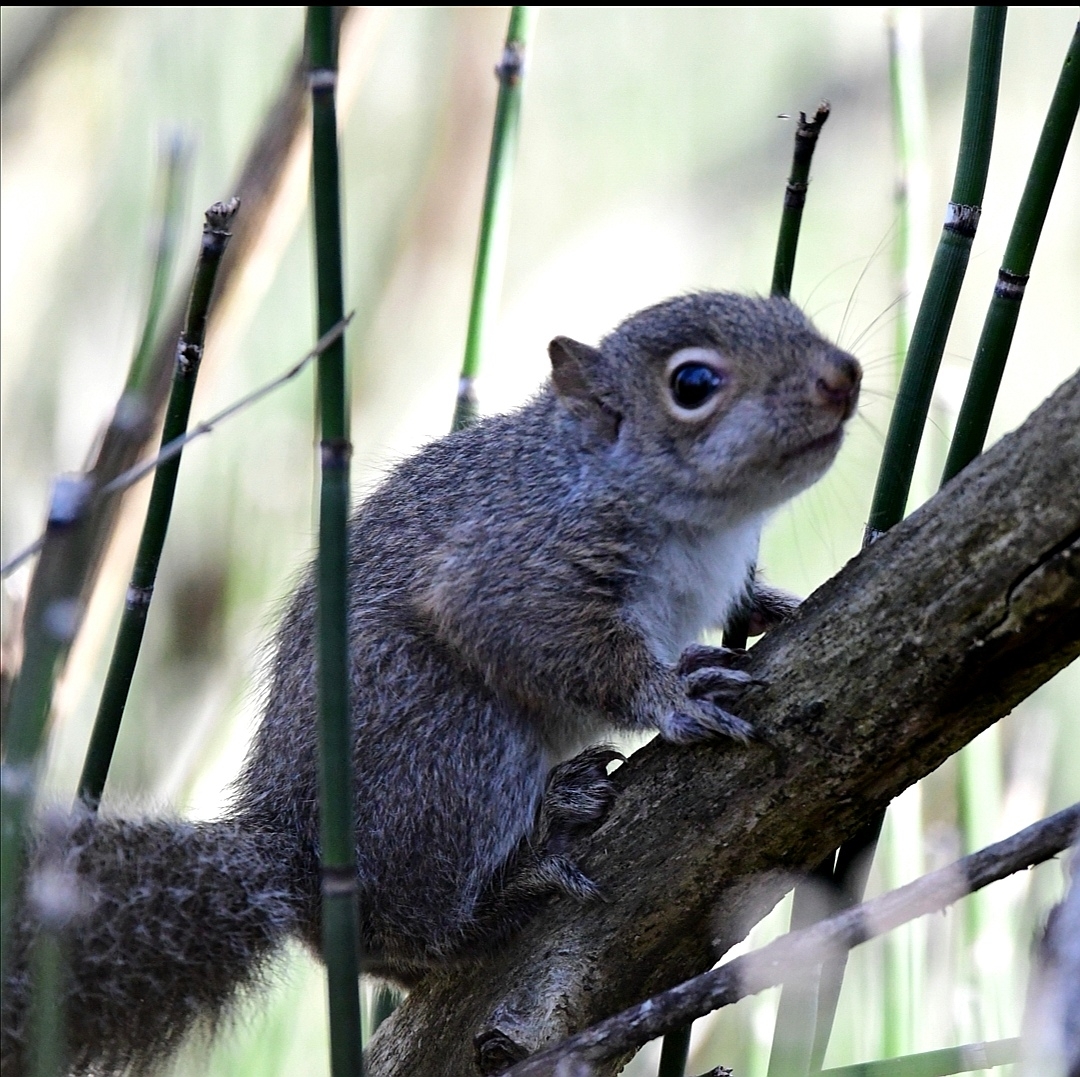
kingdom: Animalia
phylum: Chordata
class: Mammalia
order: Rodentia
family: Sciuridae
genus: Sciurus
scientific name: Sciurus carolinensis
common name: Eastern gray squirrel
